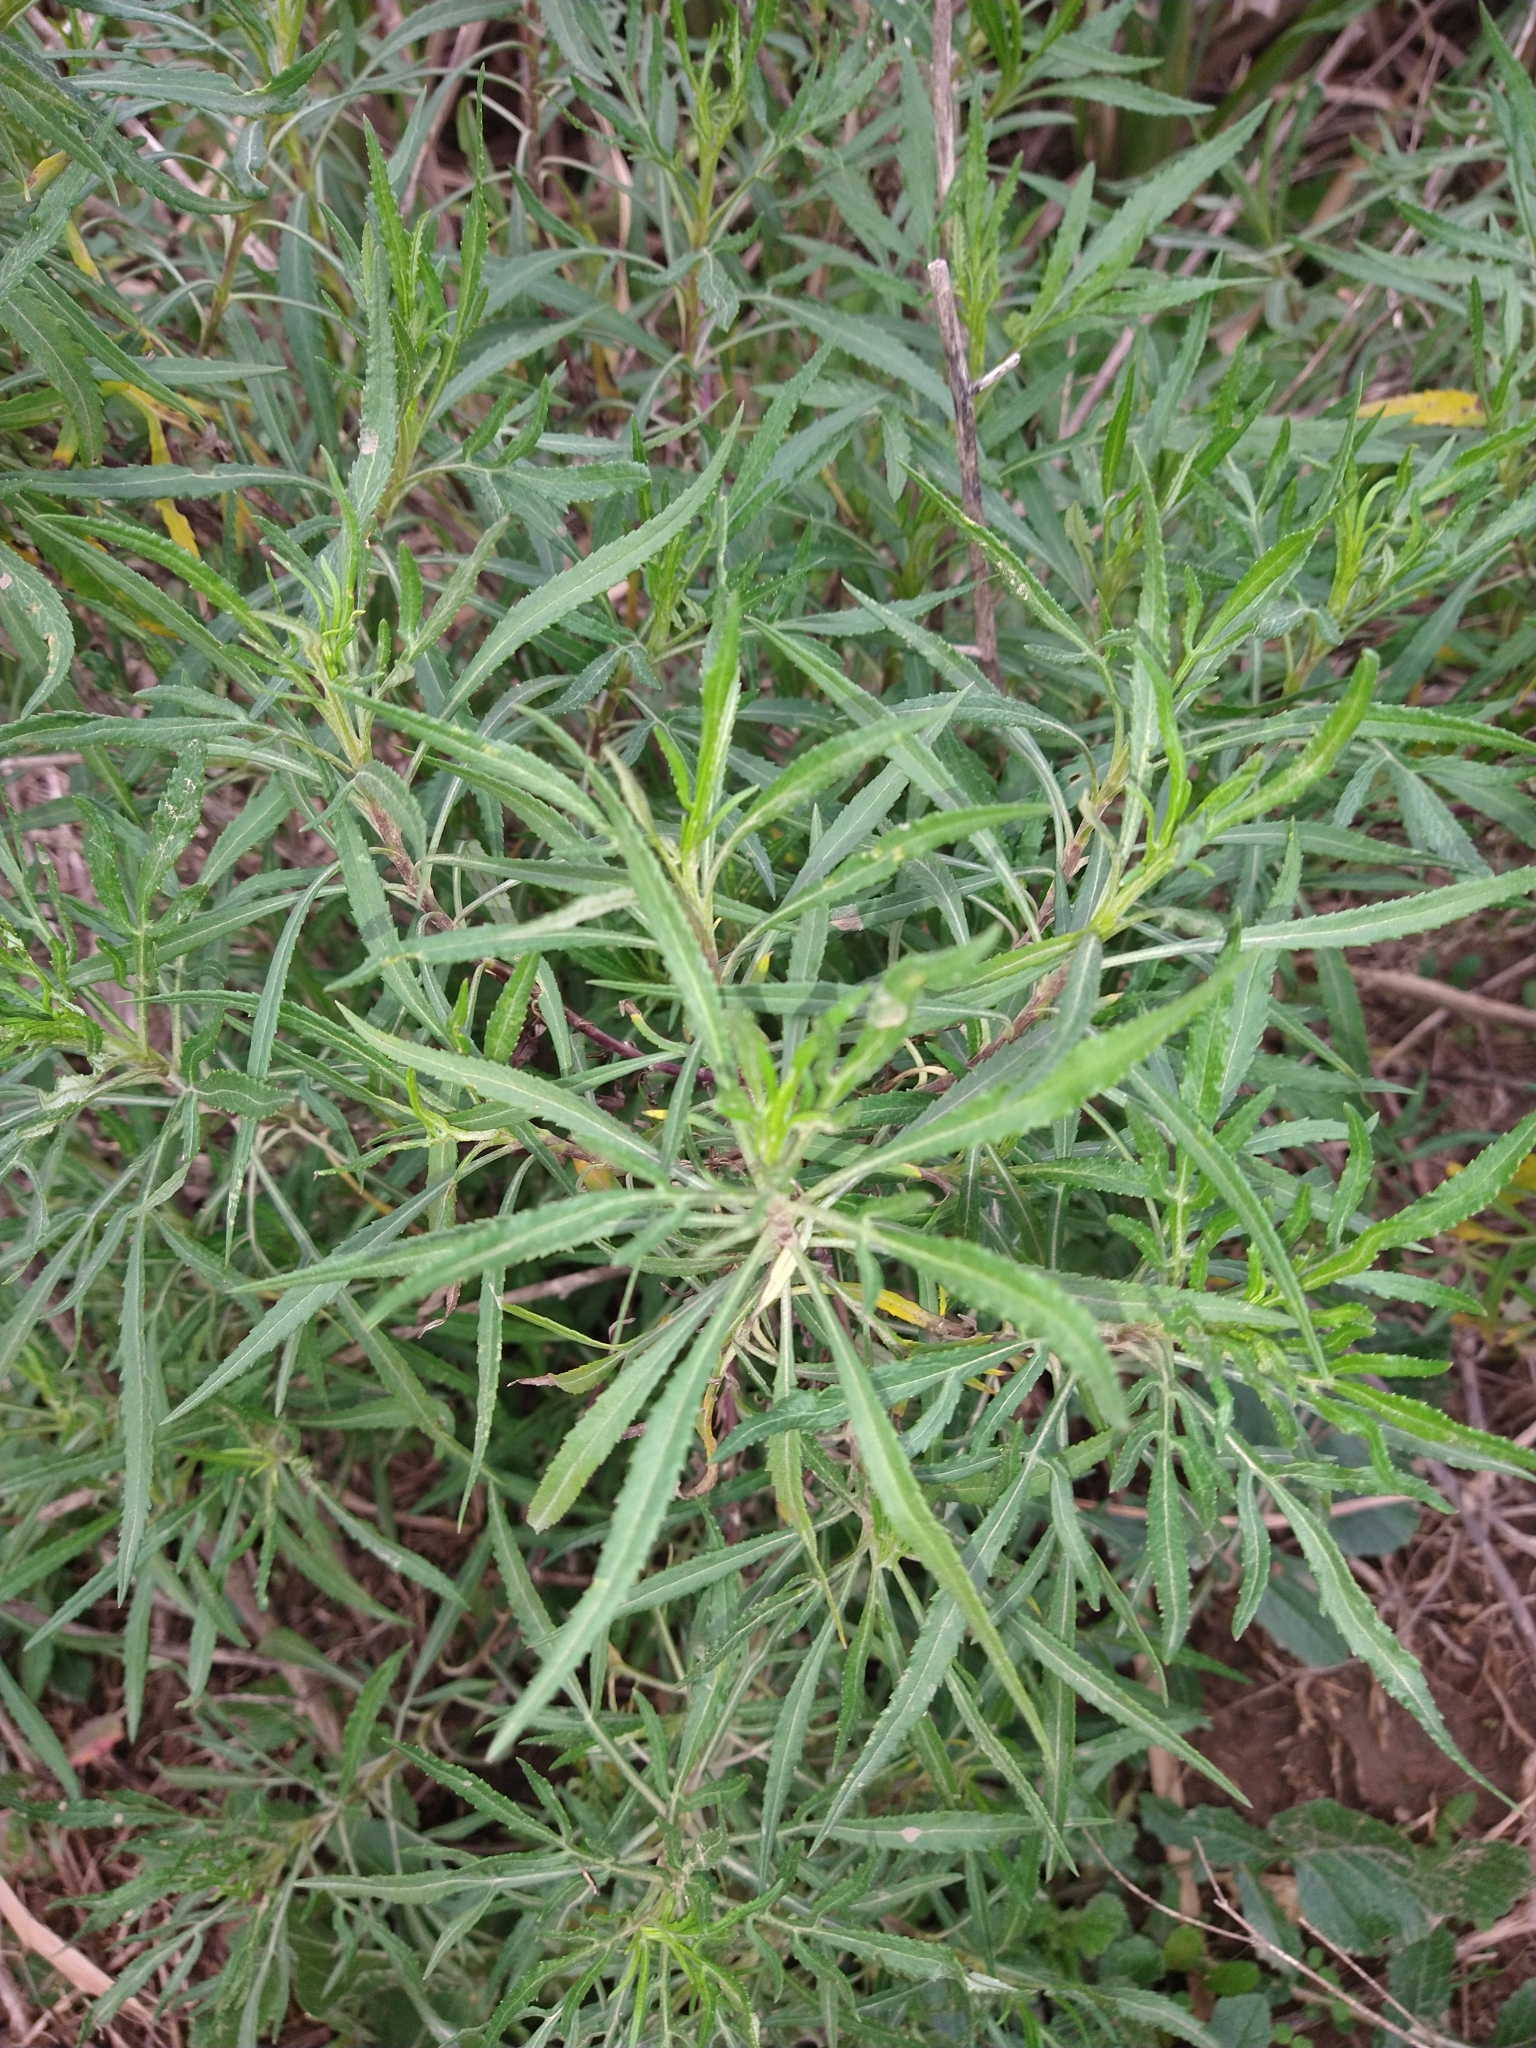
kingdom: Plantae
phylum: Tracheophyta
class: Magnoliopsida
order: Asterales
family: Asteraceae
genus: Raulinoreitzia
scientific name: Raulinoreitzia tremula
